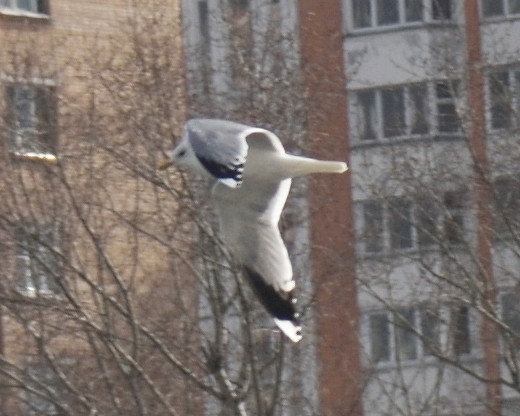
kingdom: Animalia
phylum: Chordata
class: Aves
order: Charadriiformes
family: Laridae
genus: Larus
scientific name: Larus canus
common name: Mew gull
